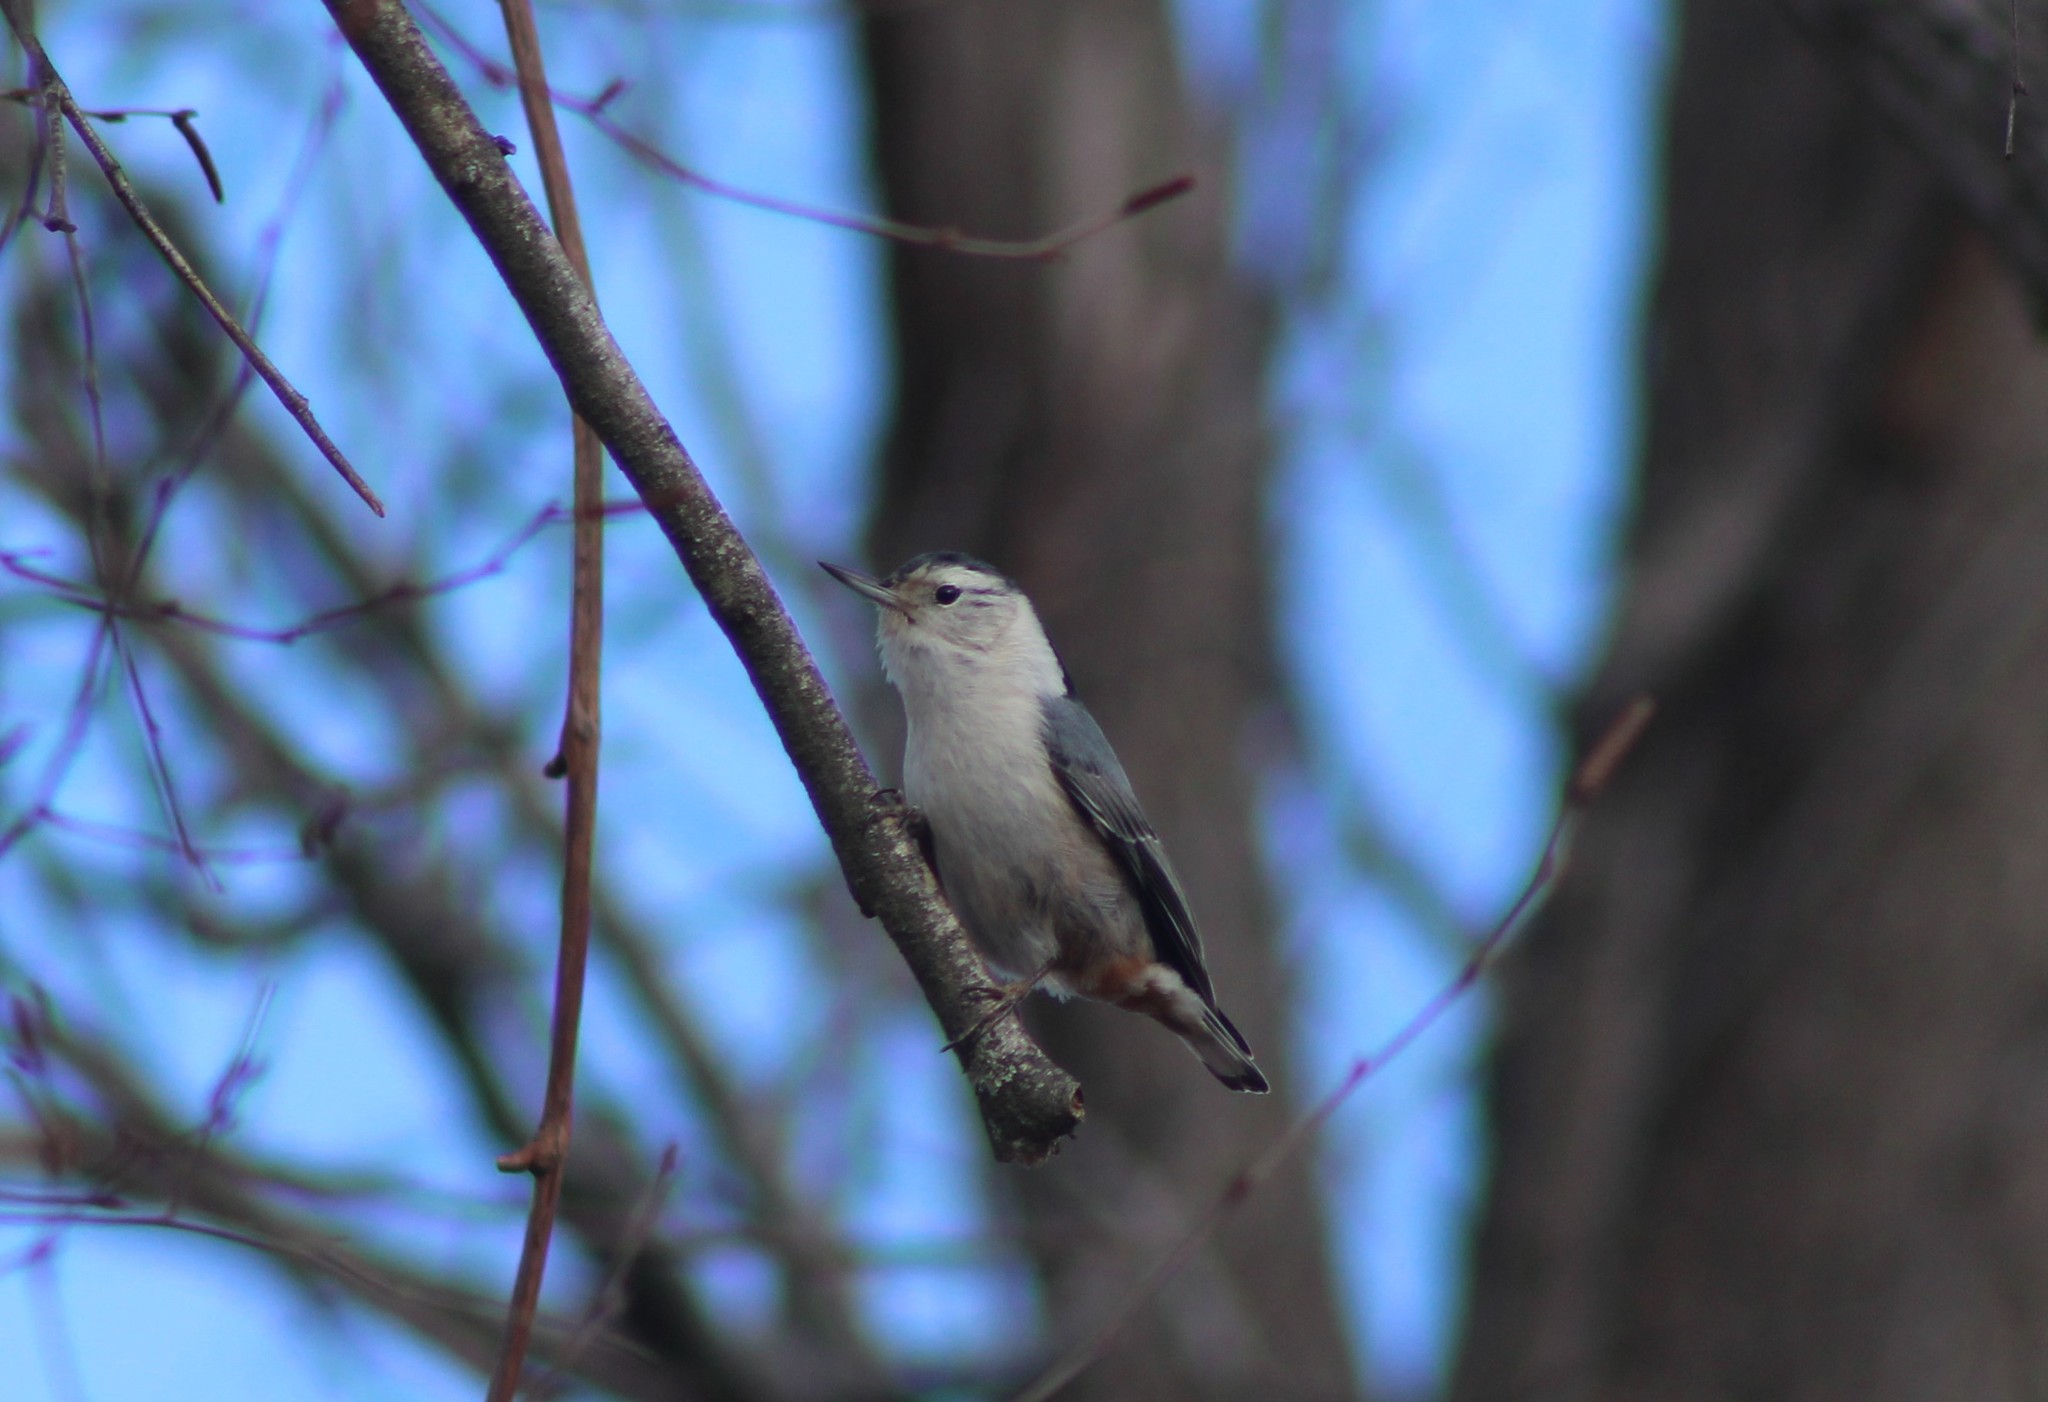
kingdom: Animalia
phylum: Chordata
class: Aves
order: Passeriformes
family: Sittidae
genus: Sitta
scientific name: Sitta carolinensis
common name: White-breasted nuthatch
